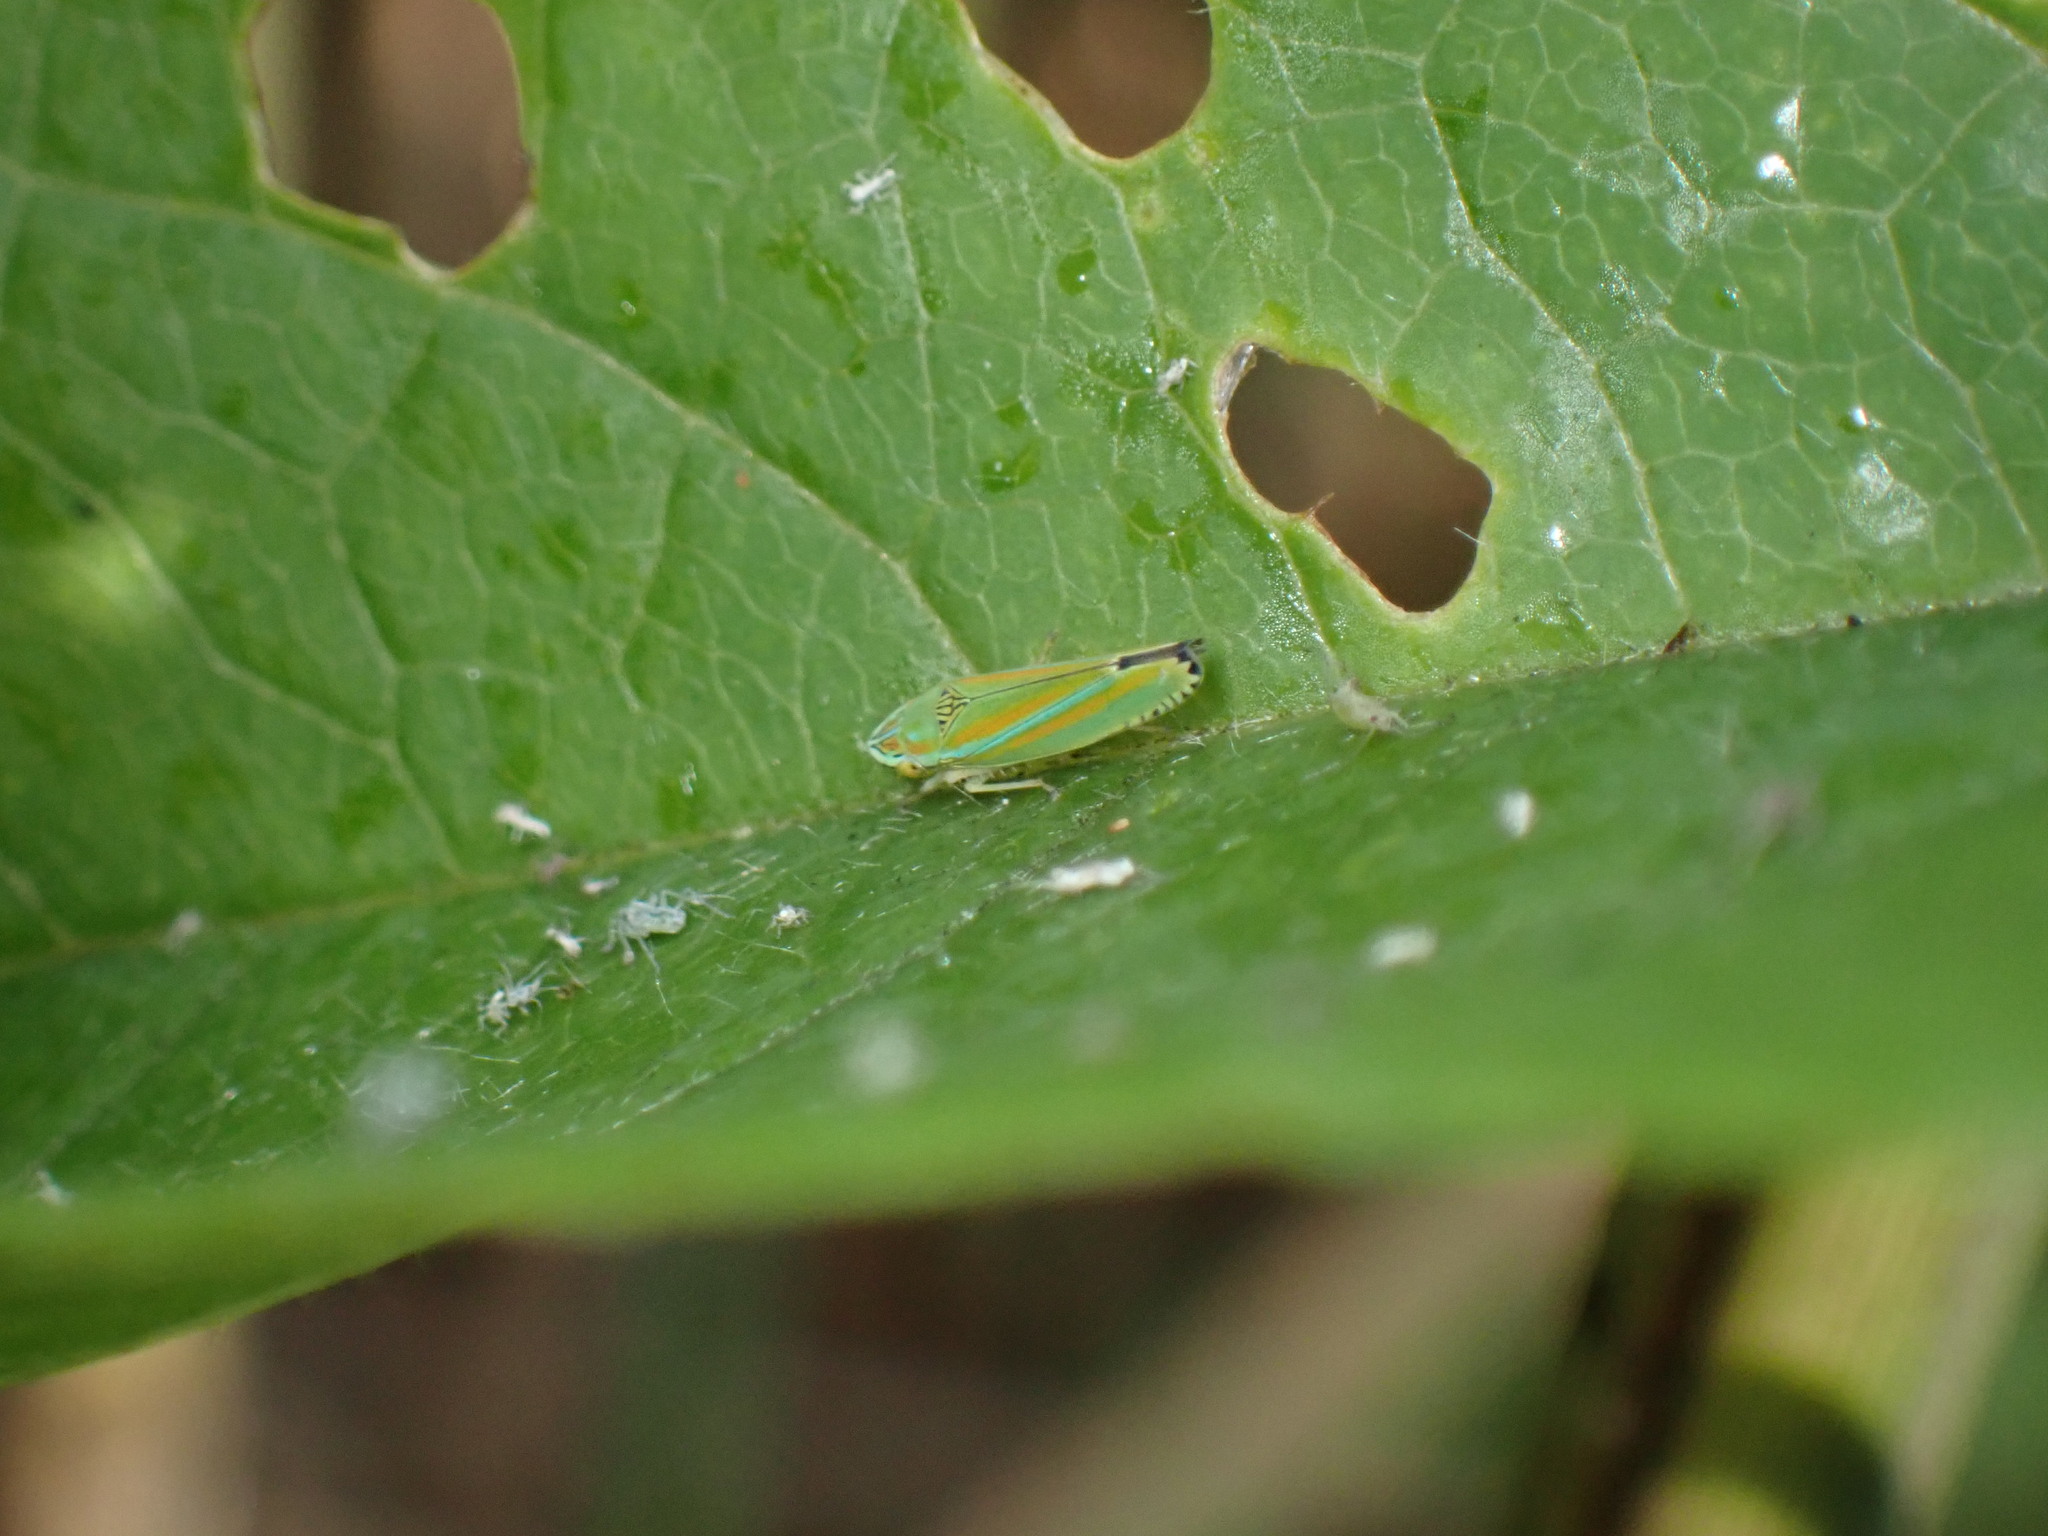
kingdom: Animalia
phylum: Arthropoda
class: Insecta
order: Hemiptera
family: Cicadellidae
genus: Graphocephala
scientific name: Graphocephala versuta
